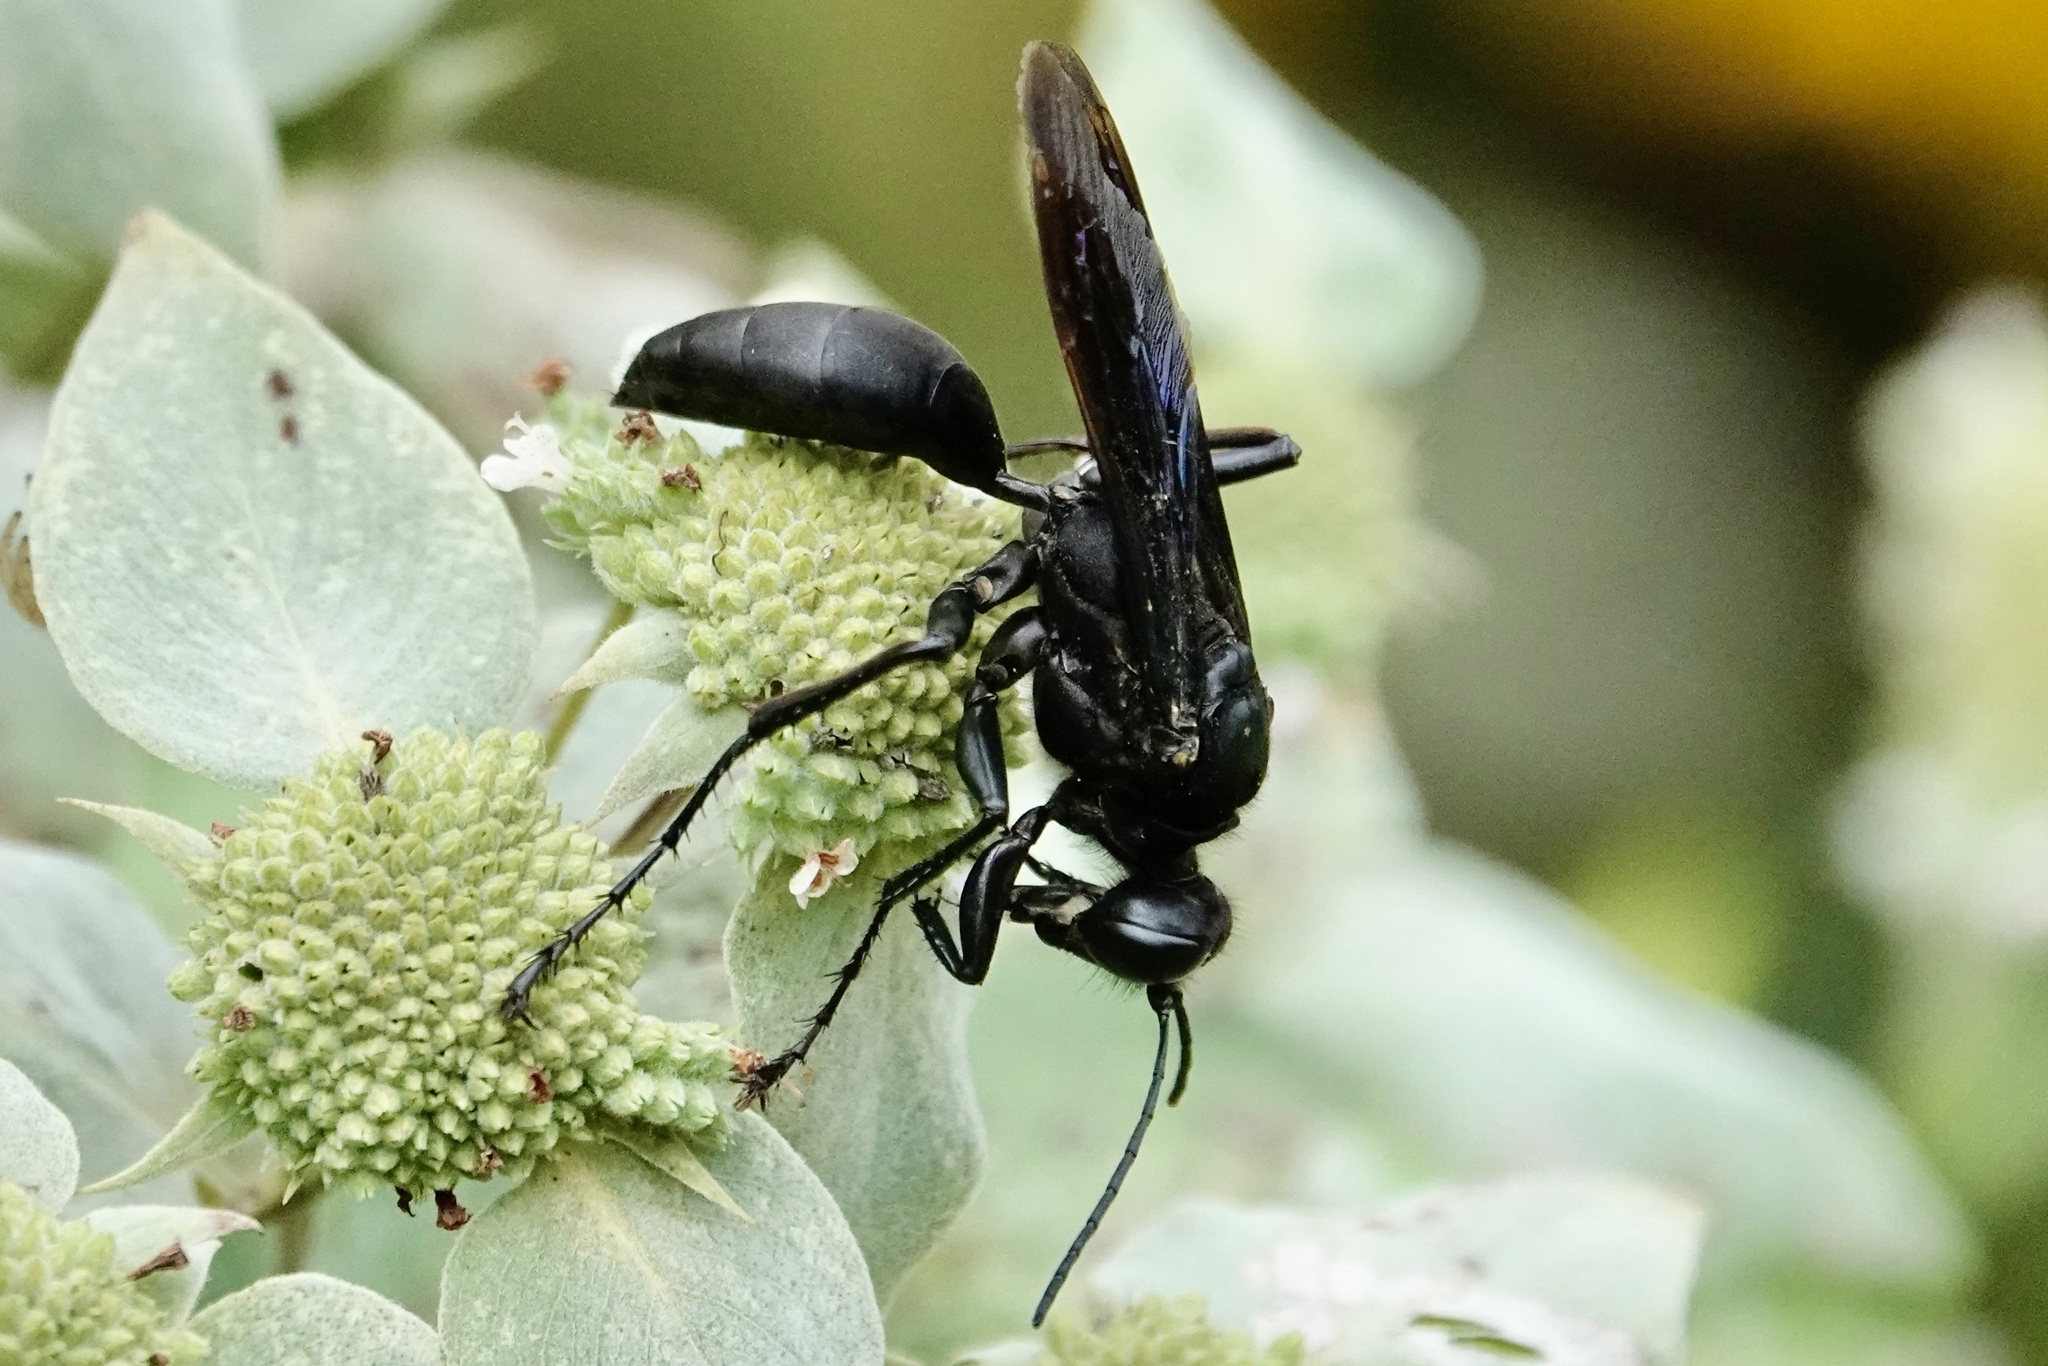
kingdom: Animalia
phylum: Arthropoda
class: Insecta
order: Hymenoptera
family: Sphecidae
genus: Sphex
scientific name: Sphex pensylvanicus
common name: Great black digger wasp
